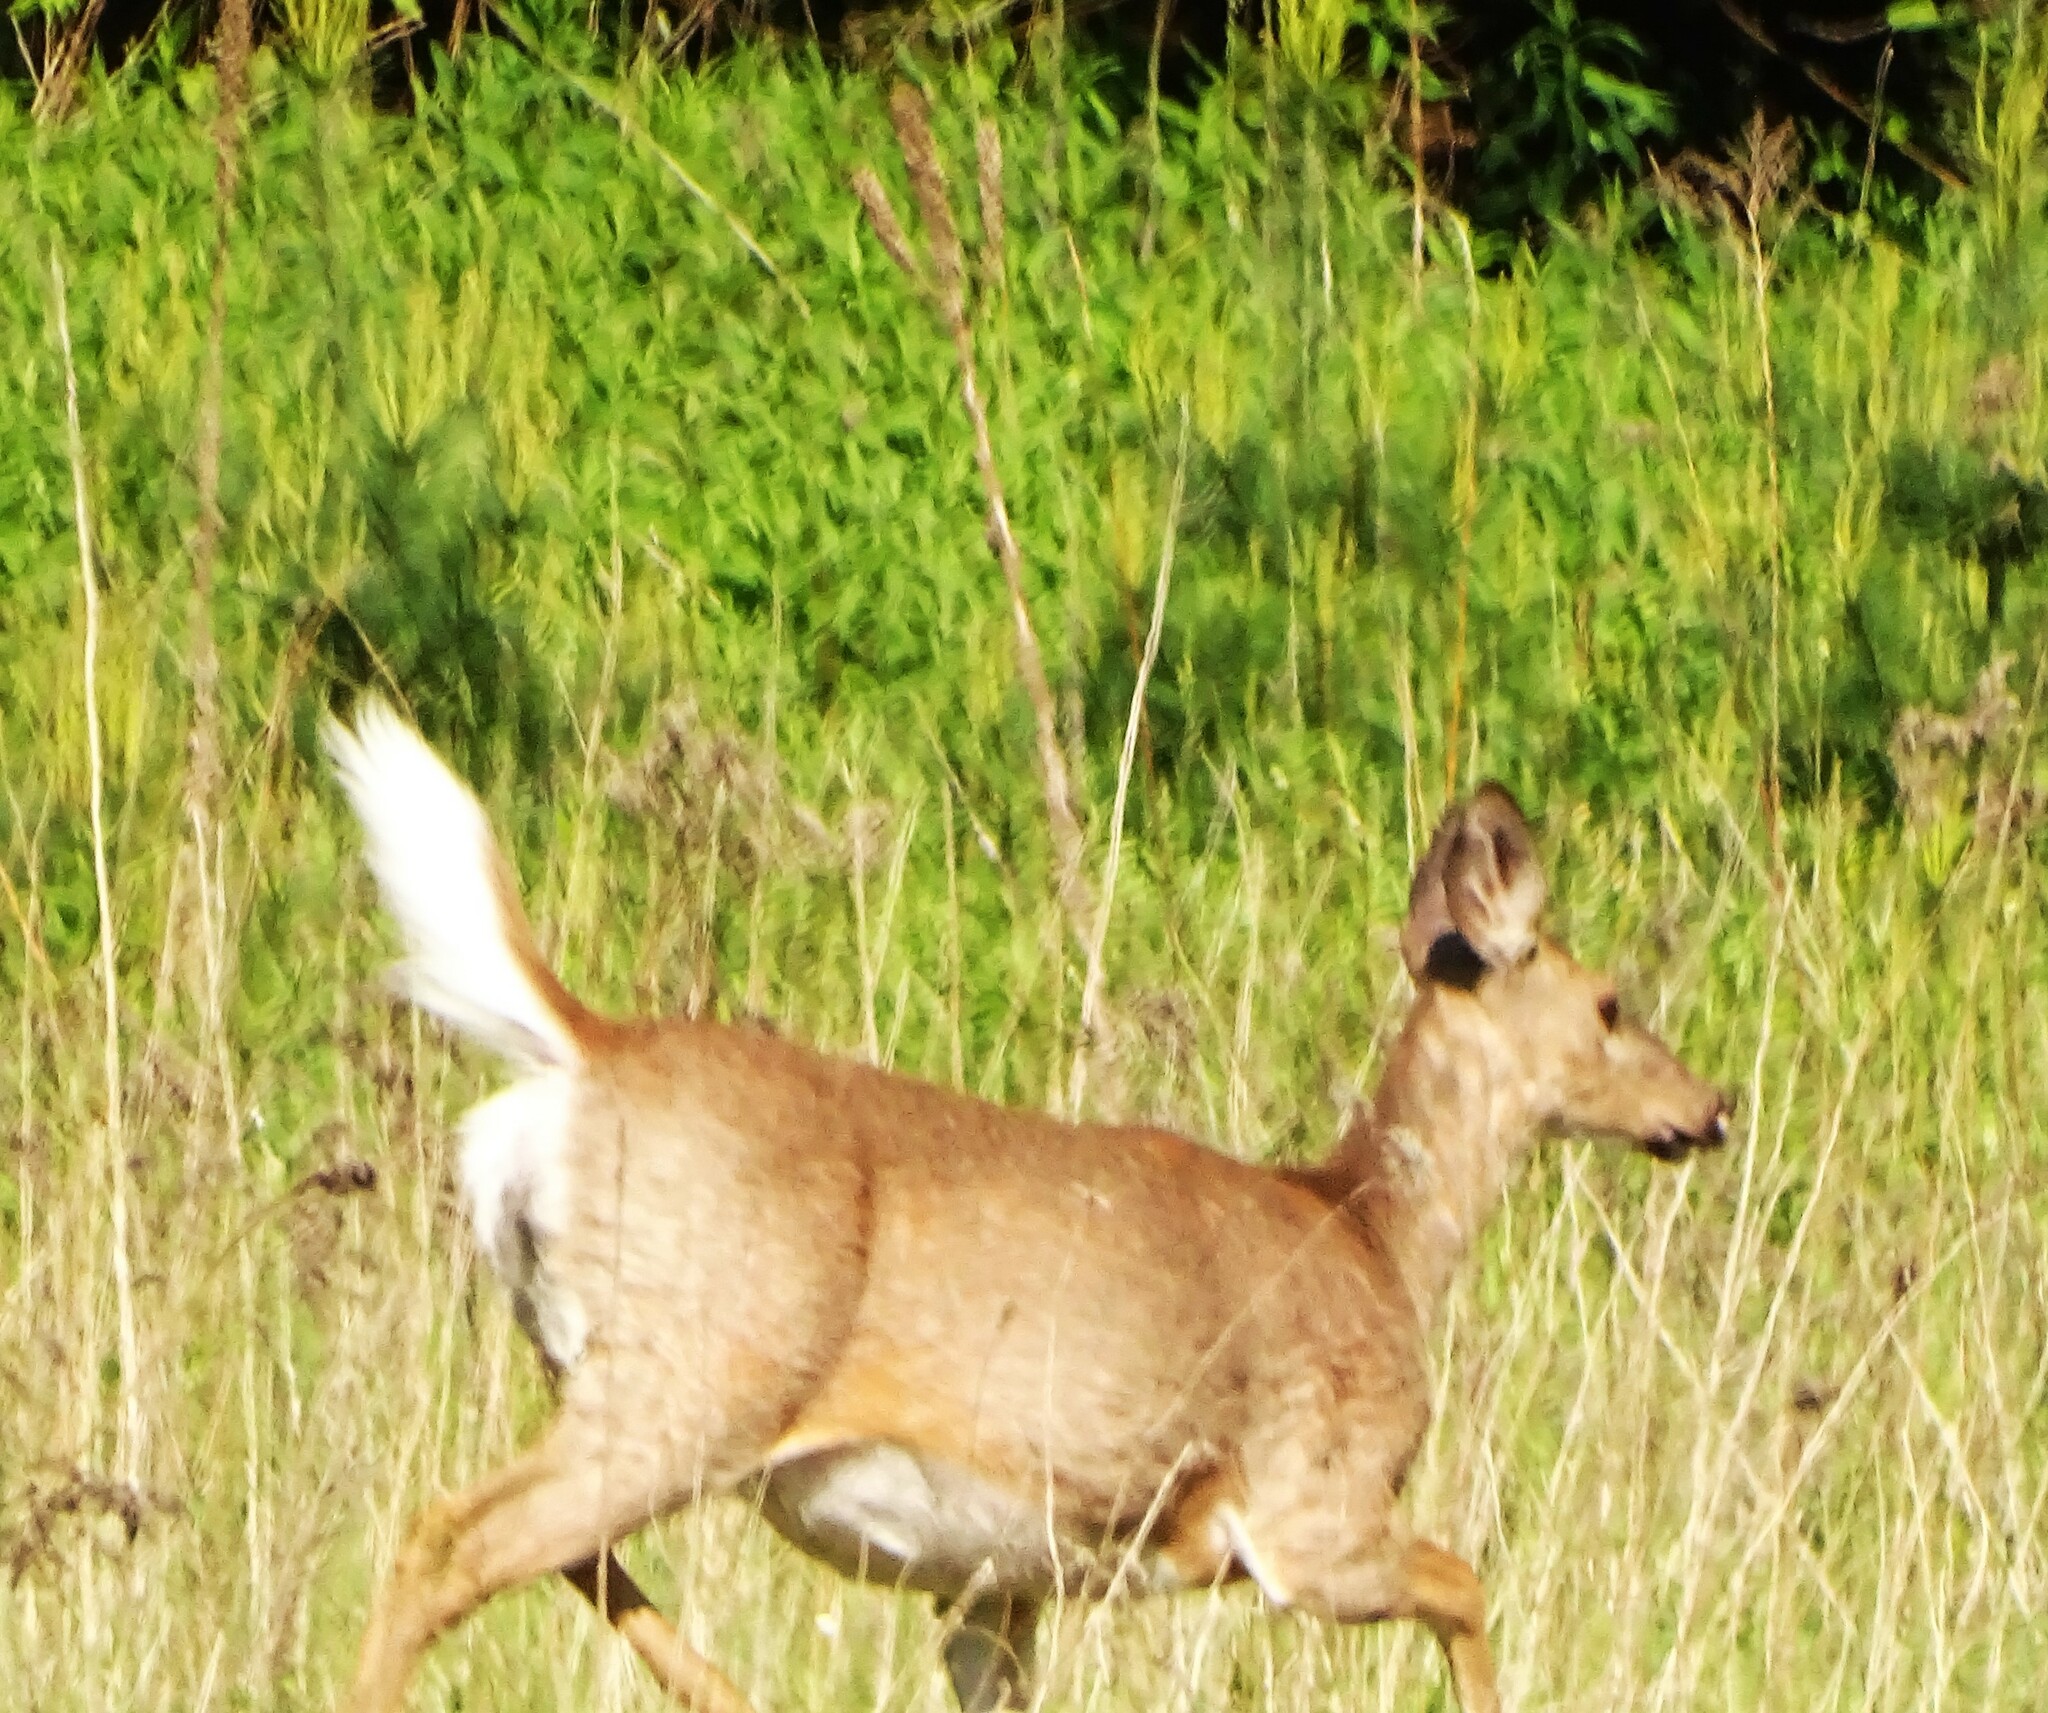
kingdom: Animalia
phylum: Chordata
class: Mammalia
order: Artiodactyla
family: Cervidae
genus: Odocoileus
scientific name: Odocoileus virginianus
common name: White-tailed deer
